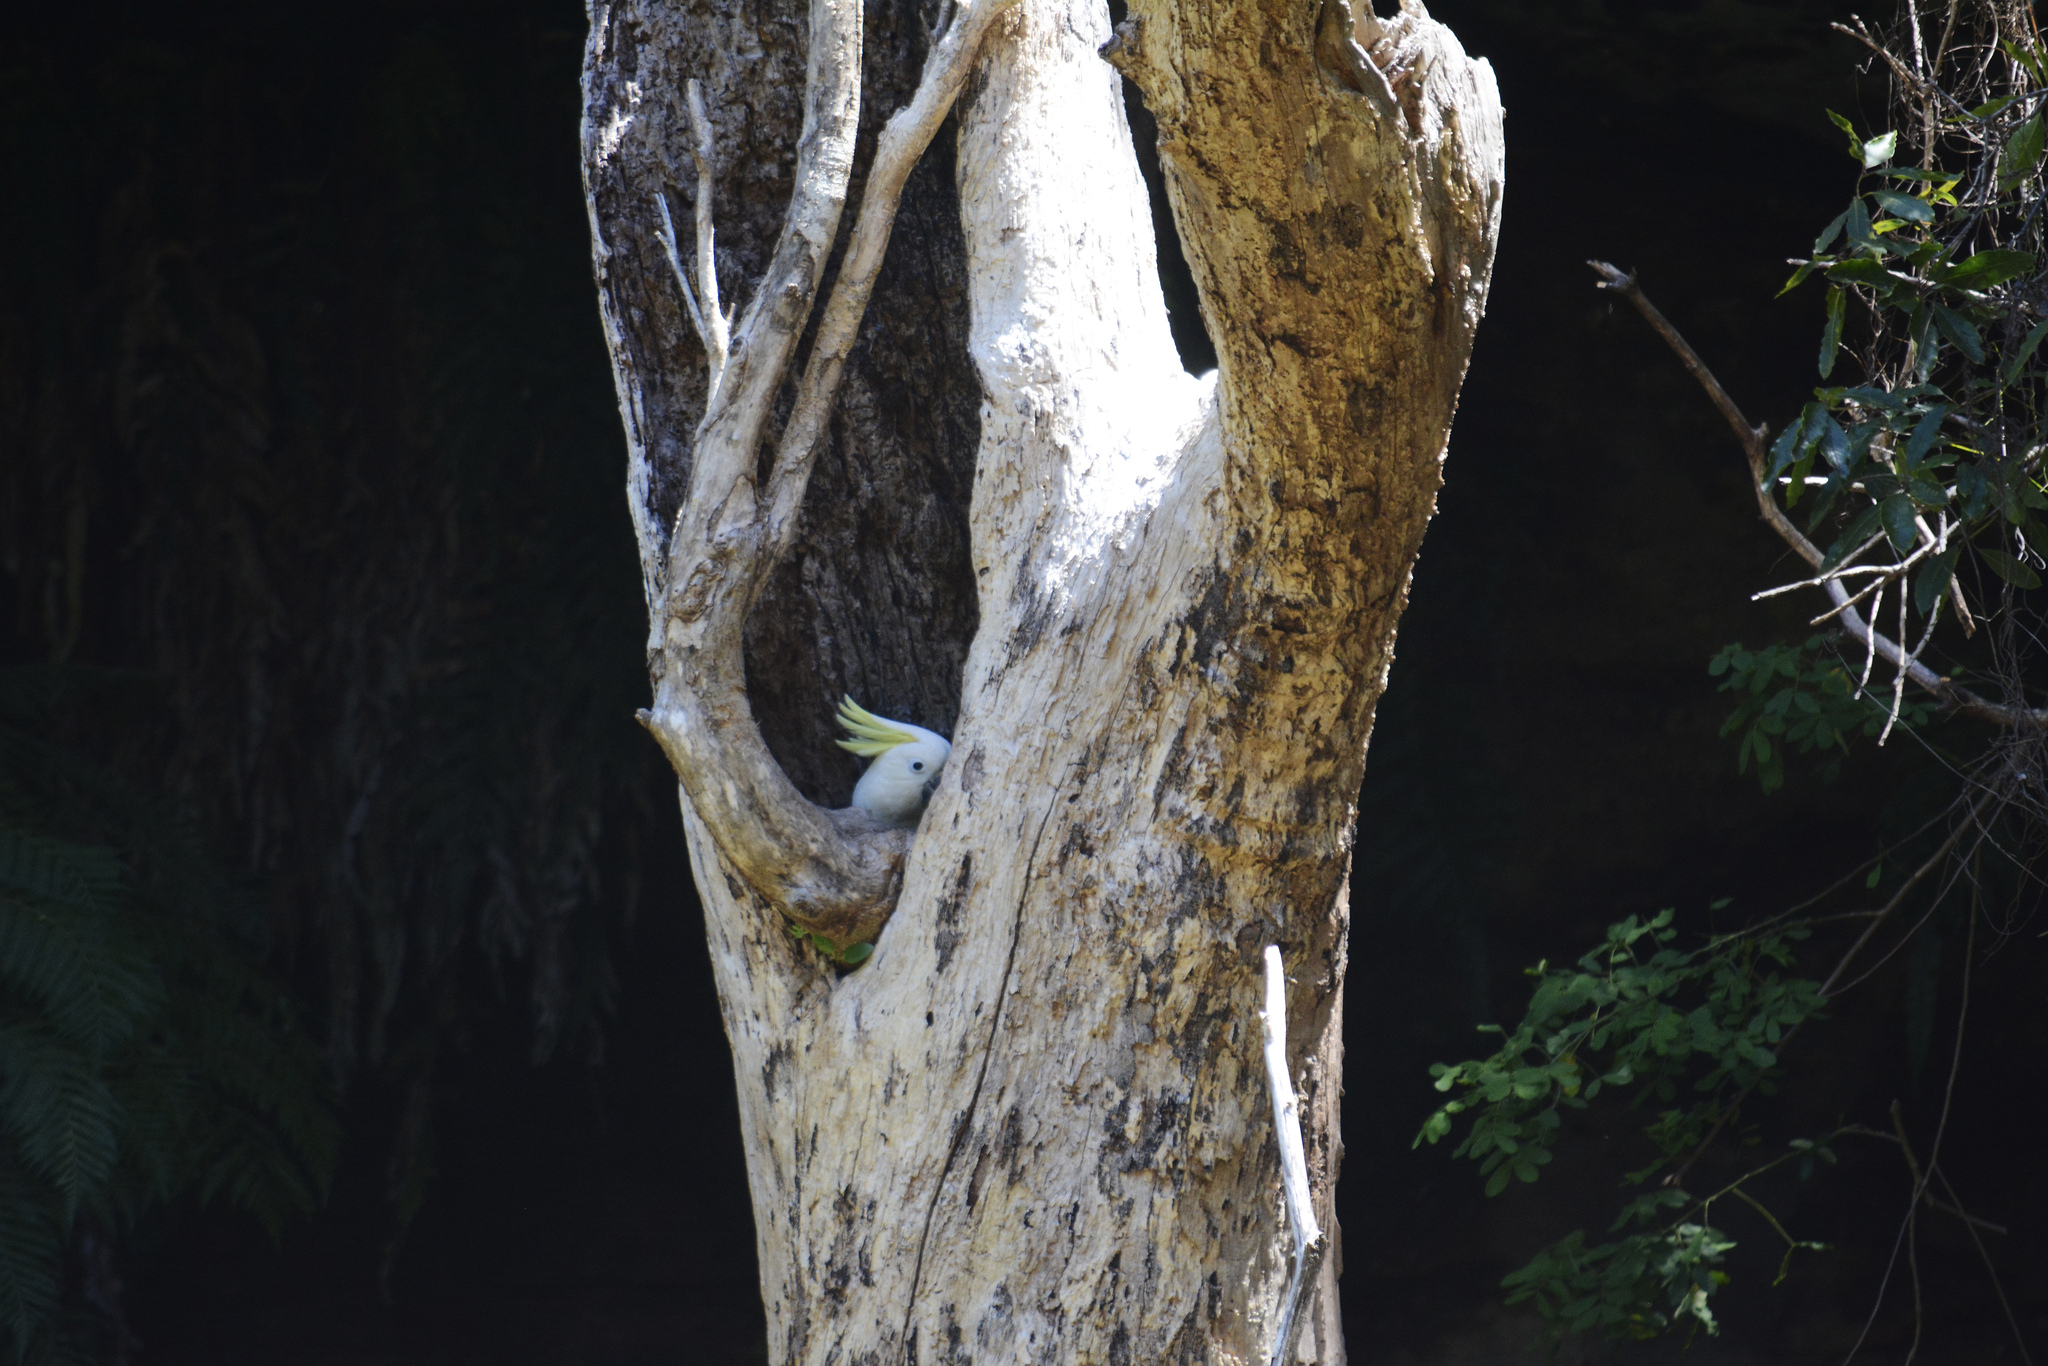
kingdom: Animalia
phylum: Chordata
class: Aves
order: Psittaciformes
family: Psittacidae
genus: Cacatua
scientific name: Cacatua galerita
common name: Sulphur-crested cockatoo
